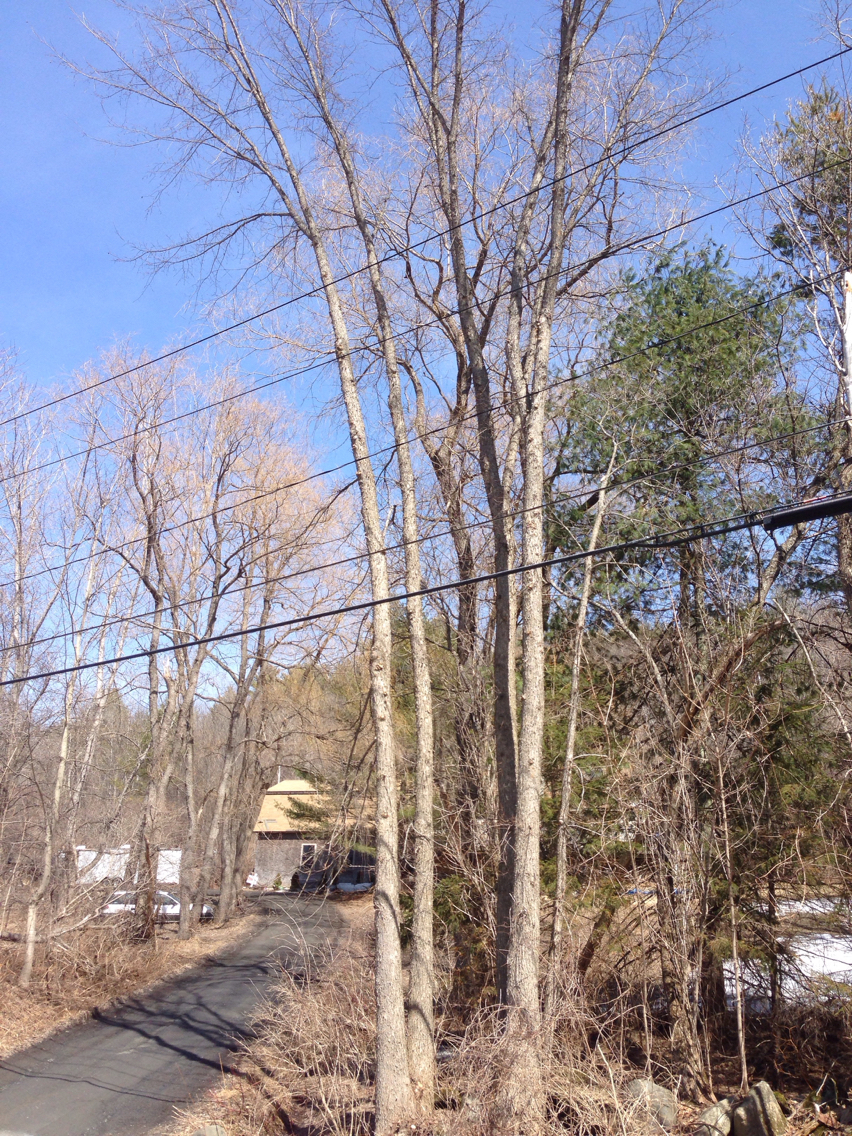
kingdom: Plantae
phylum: Tracheophyta
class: Magnoliopsida
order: Rosales
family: Ulmaceae
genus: Ulmus
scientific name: Ulmus americana
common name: American elm
